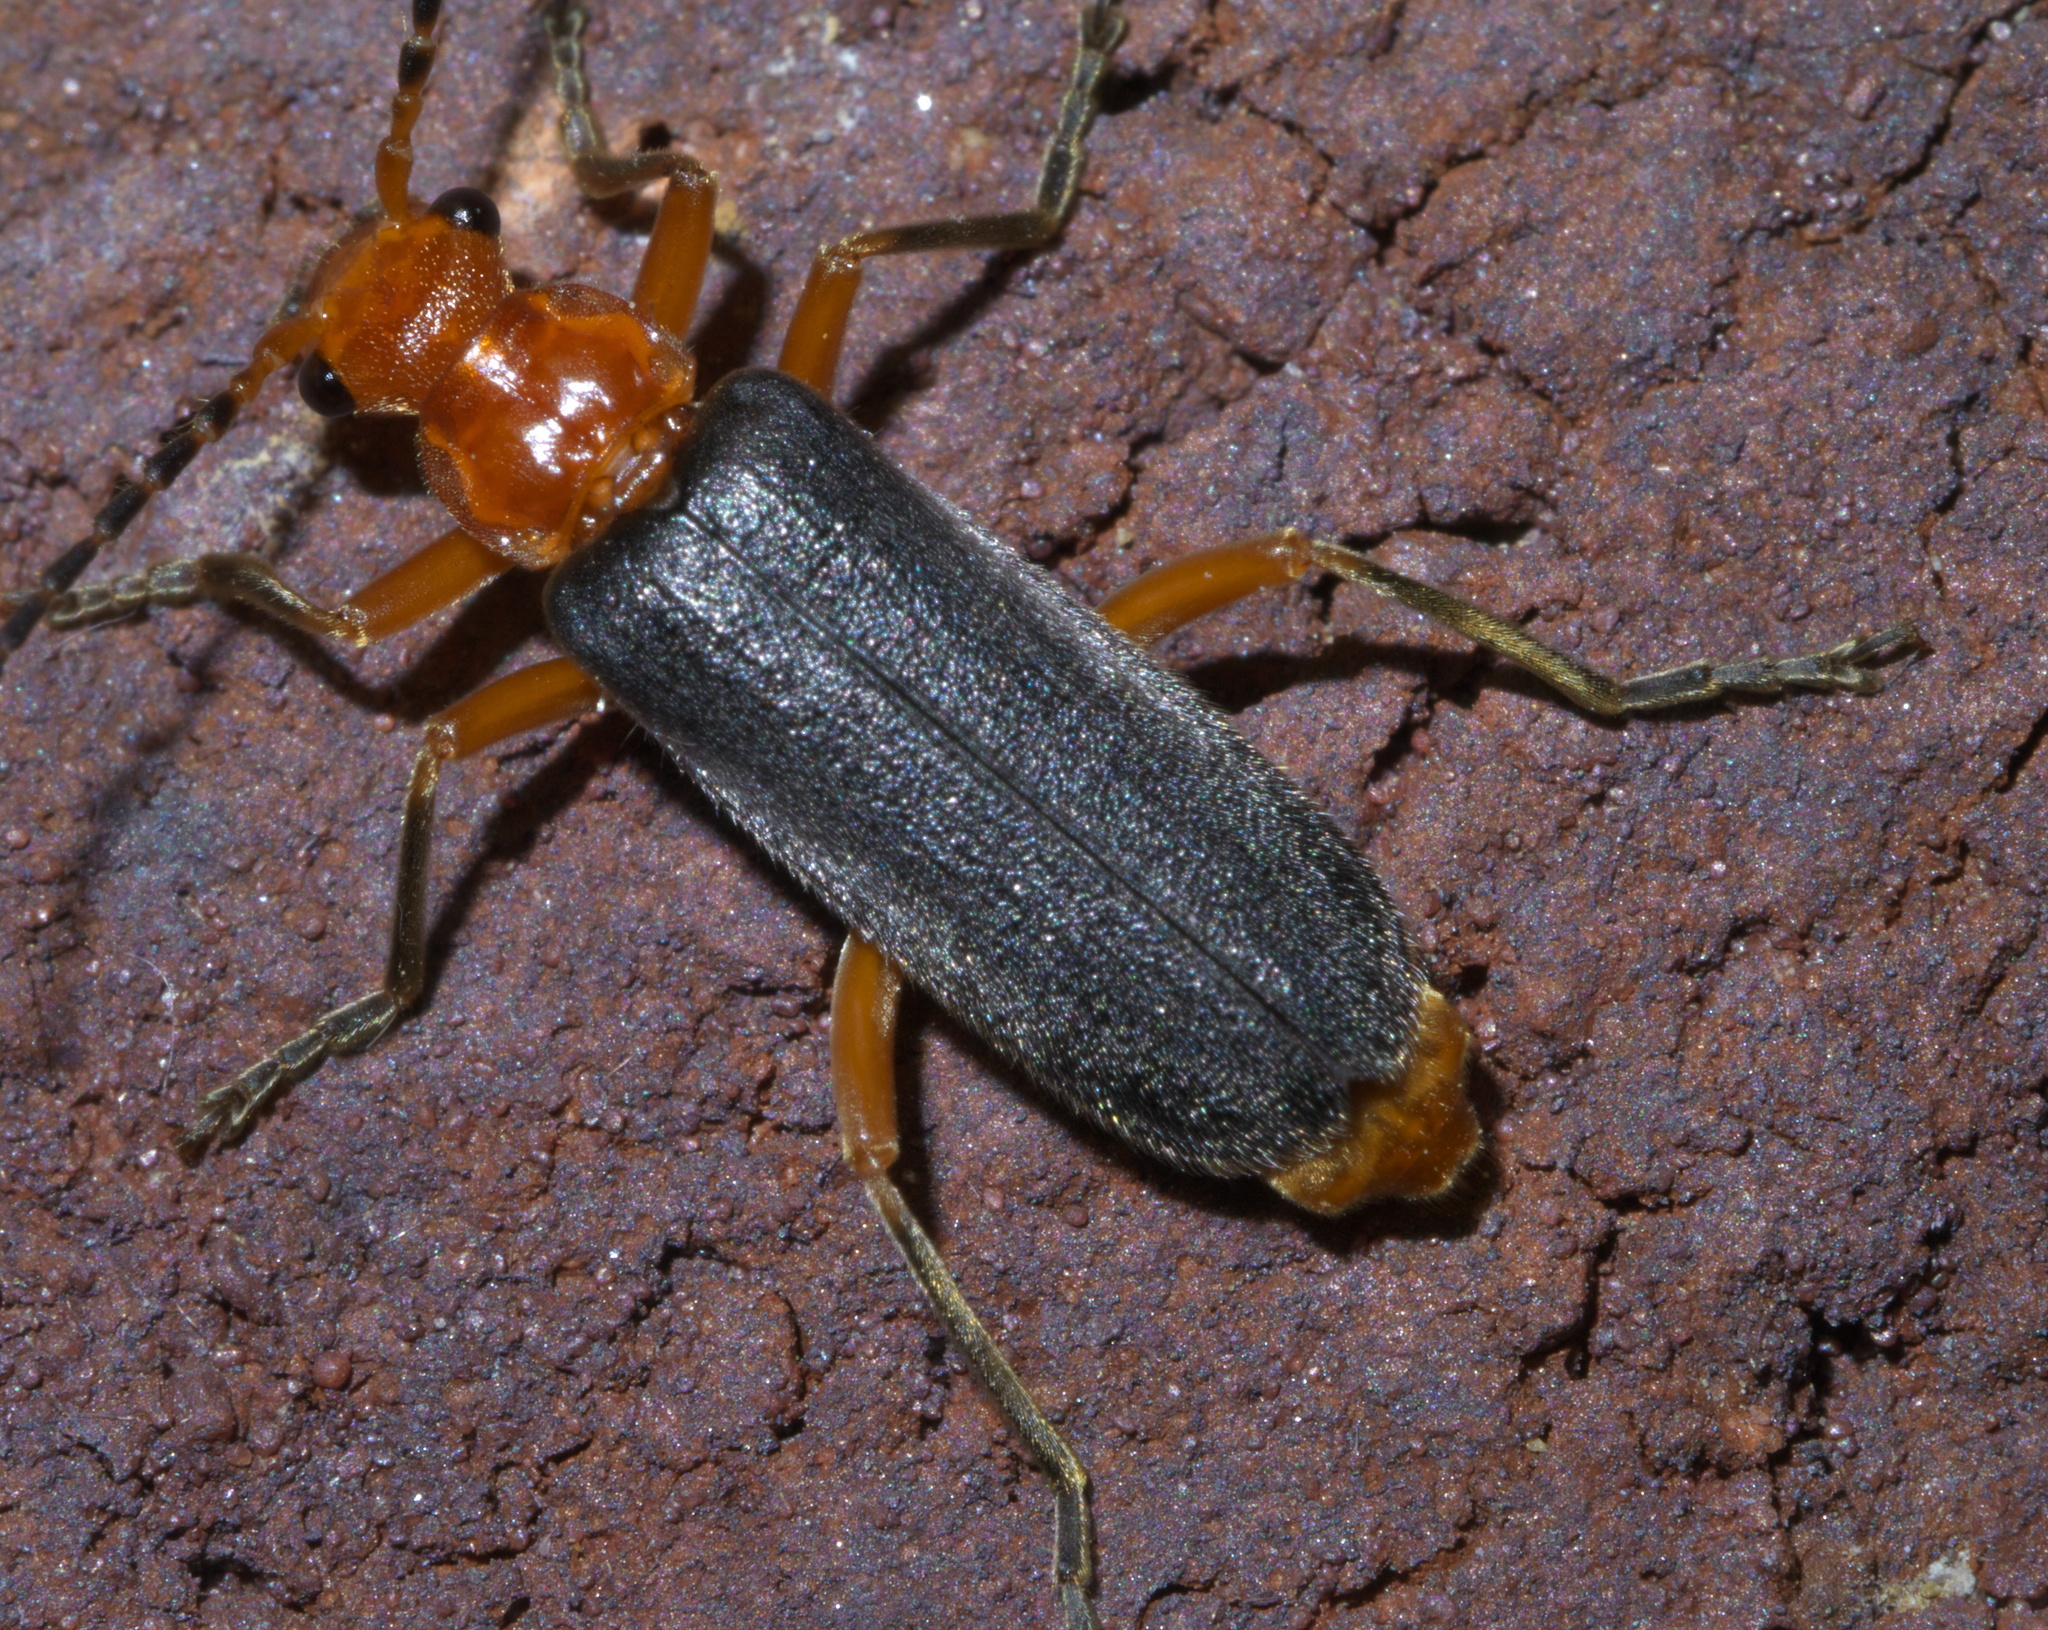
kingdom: Animalia
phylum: Arthropoda
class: Insecta
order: Coleoptera
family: Cantharidae
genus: Podabrus
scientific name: Podabrus tomentosus
